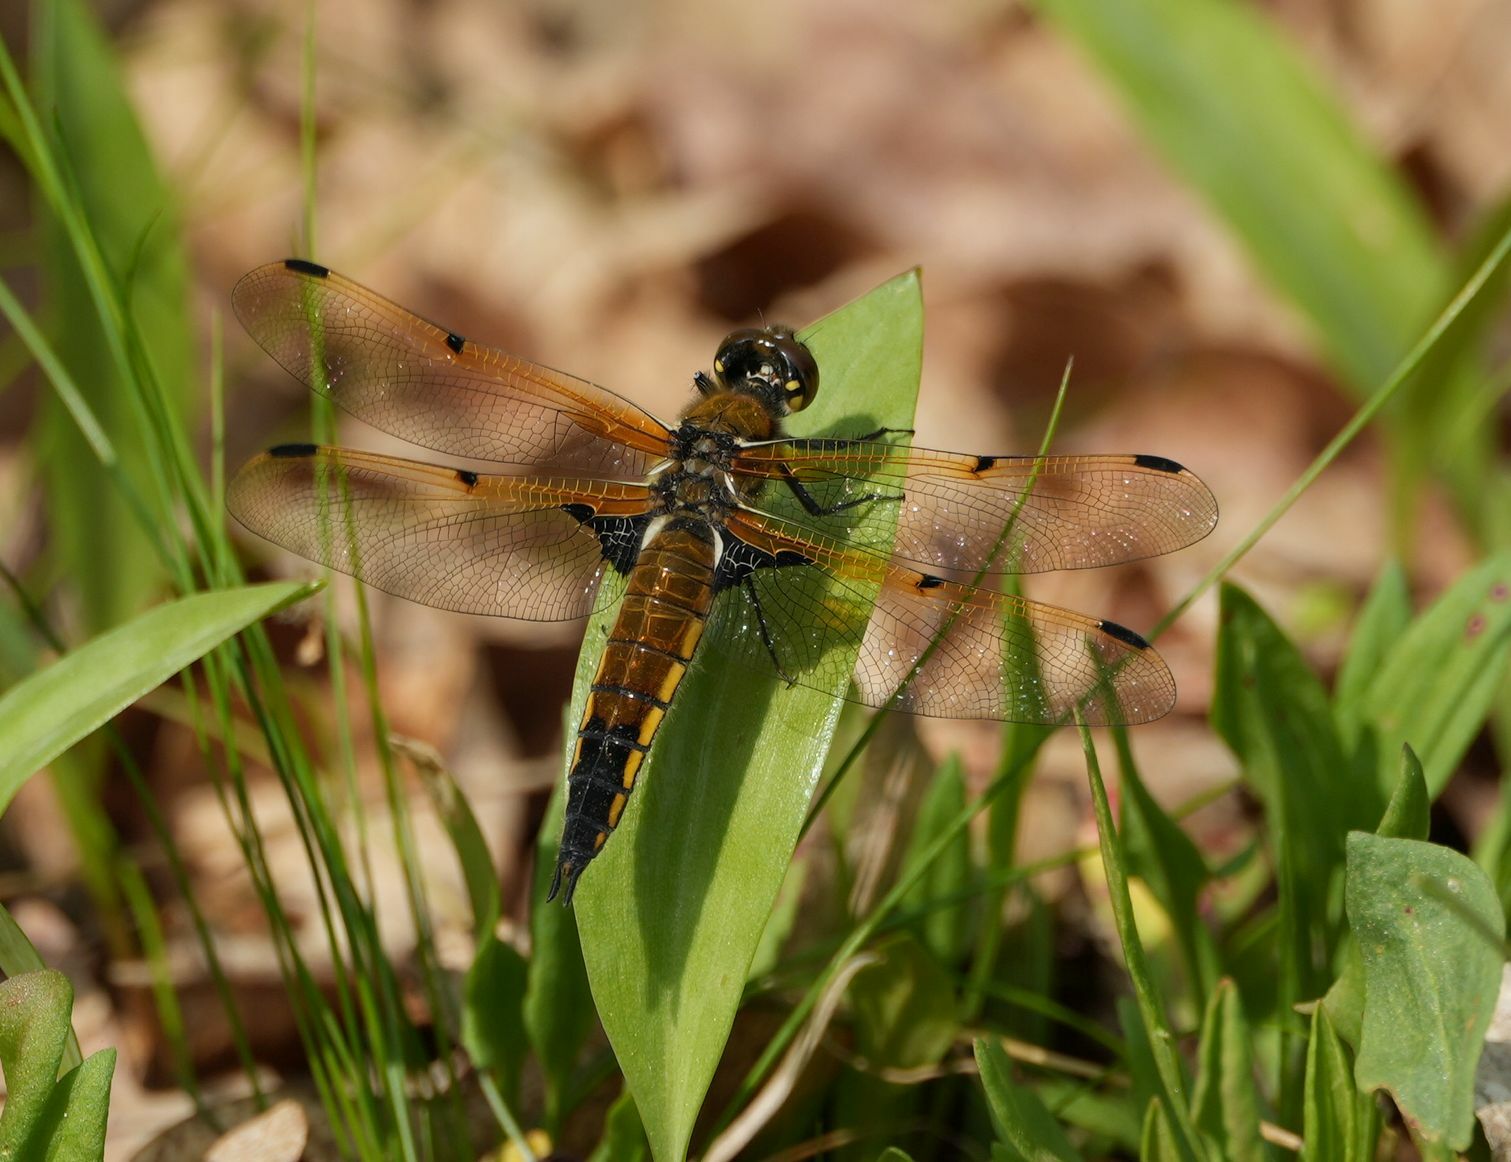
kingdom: Animalia
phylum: Arthropoda
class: Insecta
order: Odonata
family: Libellulidae
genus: Libellula
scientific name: Libellula quadrimaculata
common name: Four-spotted chaser
